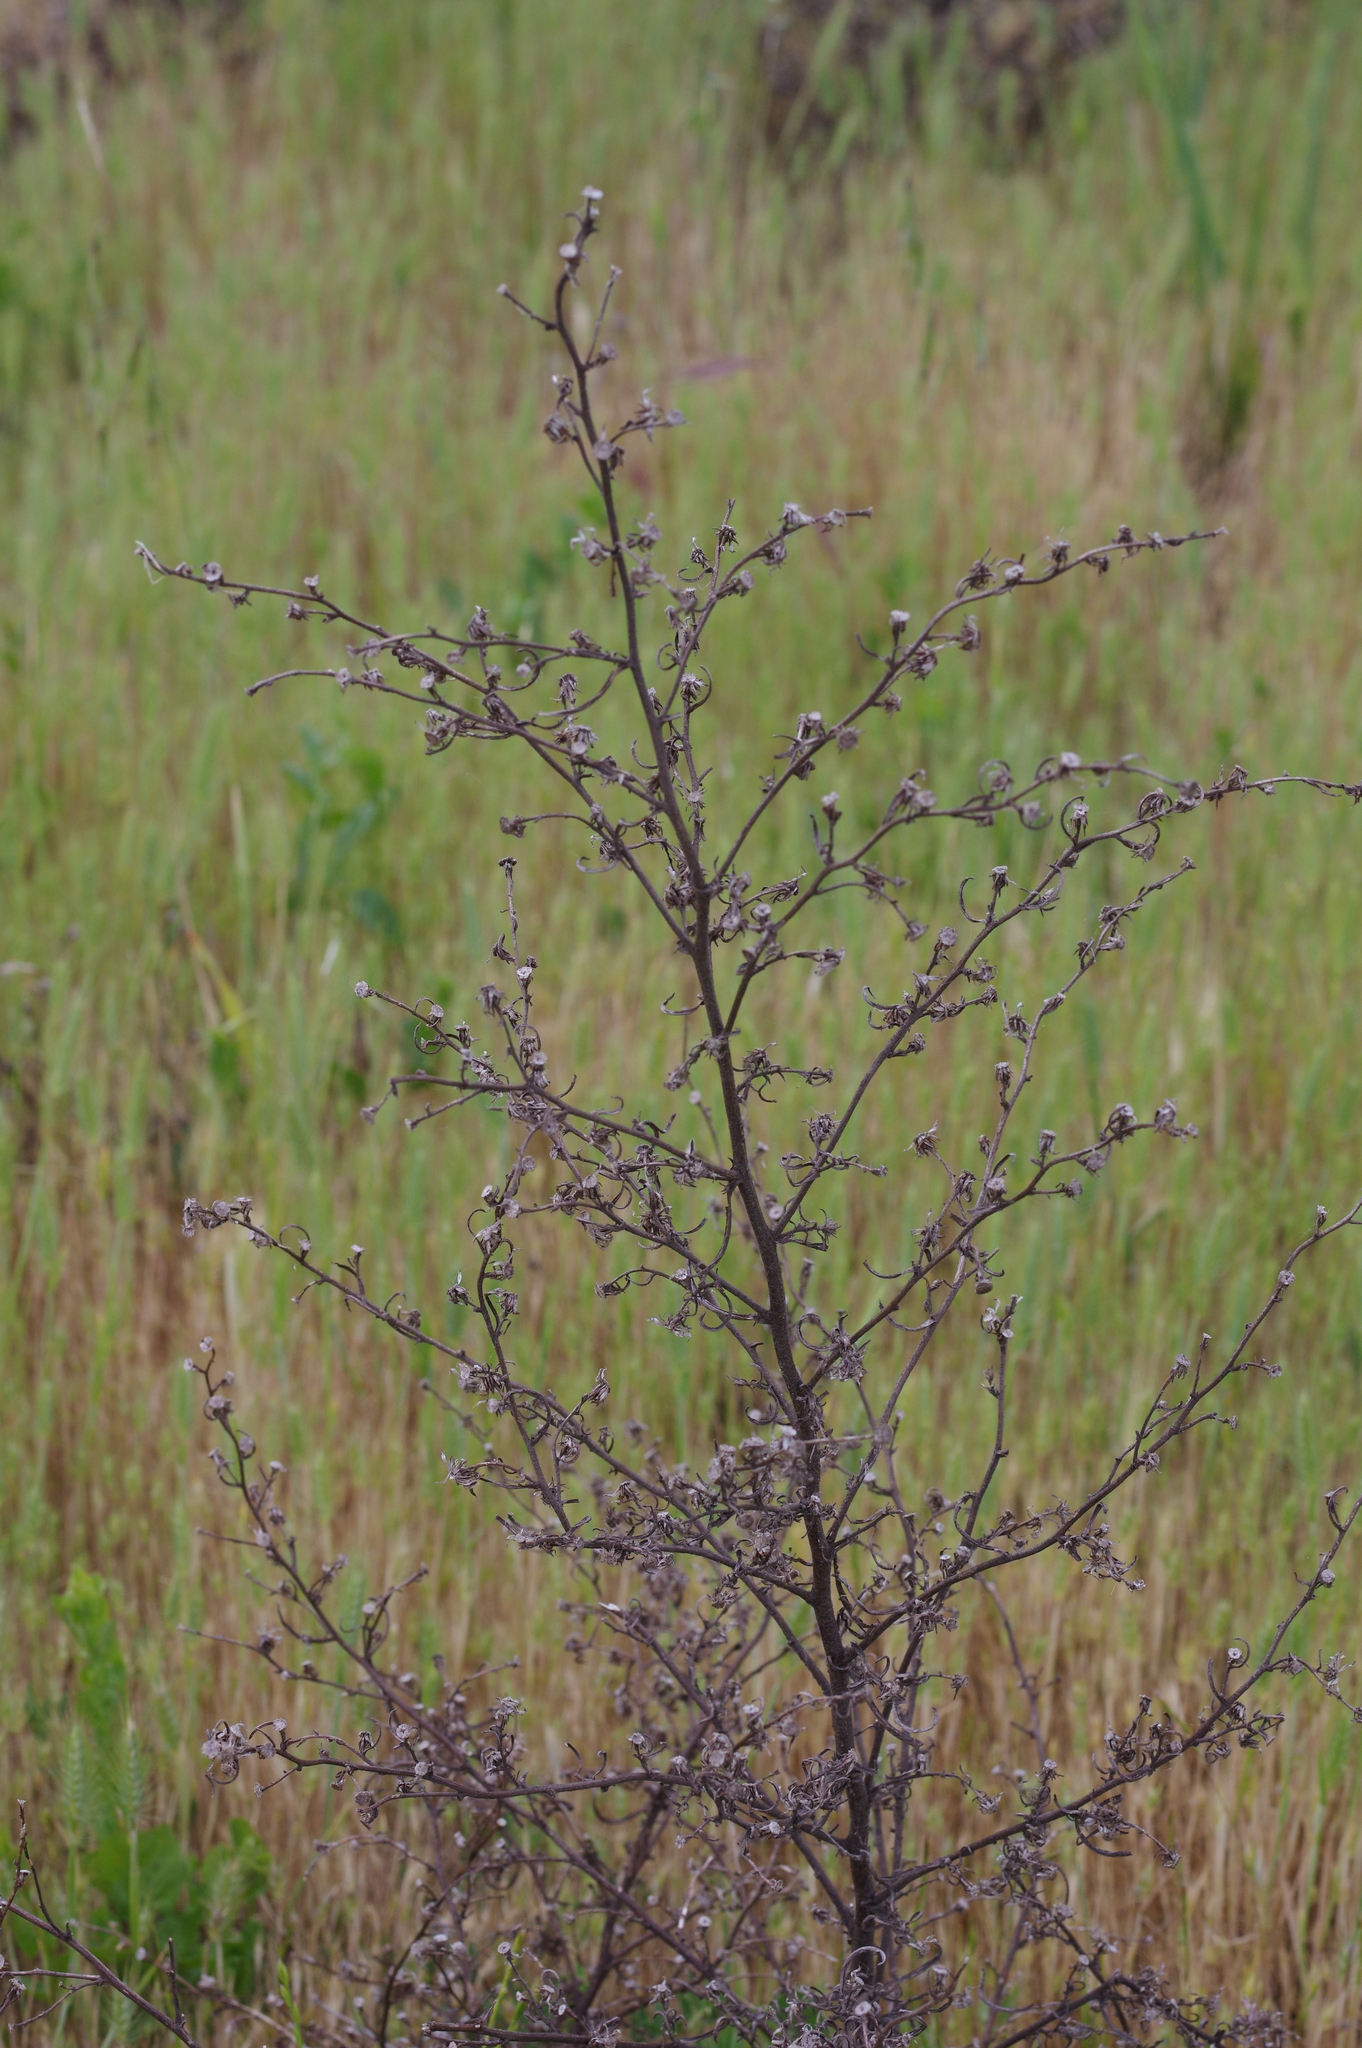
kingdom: Plantae
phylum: Tracheophyta
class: Magnoliopsida
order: Asterales
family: Asteraceae
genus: Dittrichia
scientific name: Dittrichia graveolens
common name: Stinking fleabane
